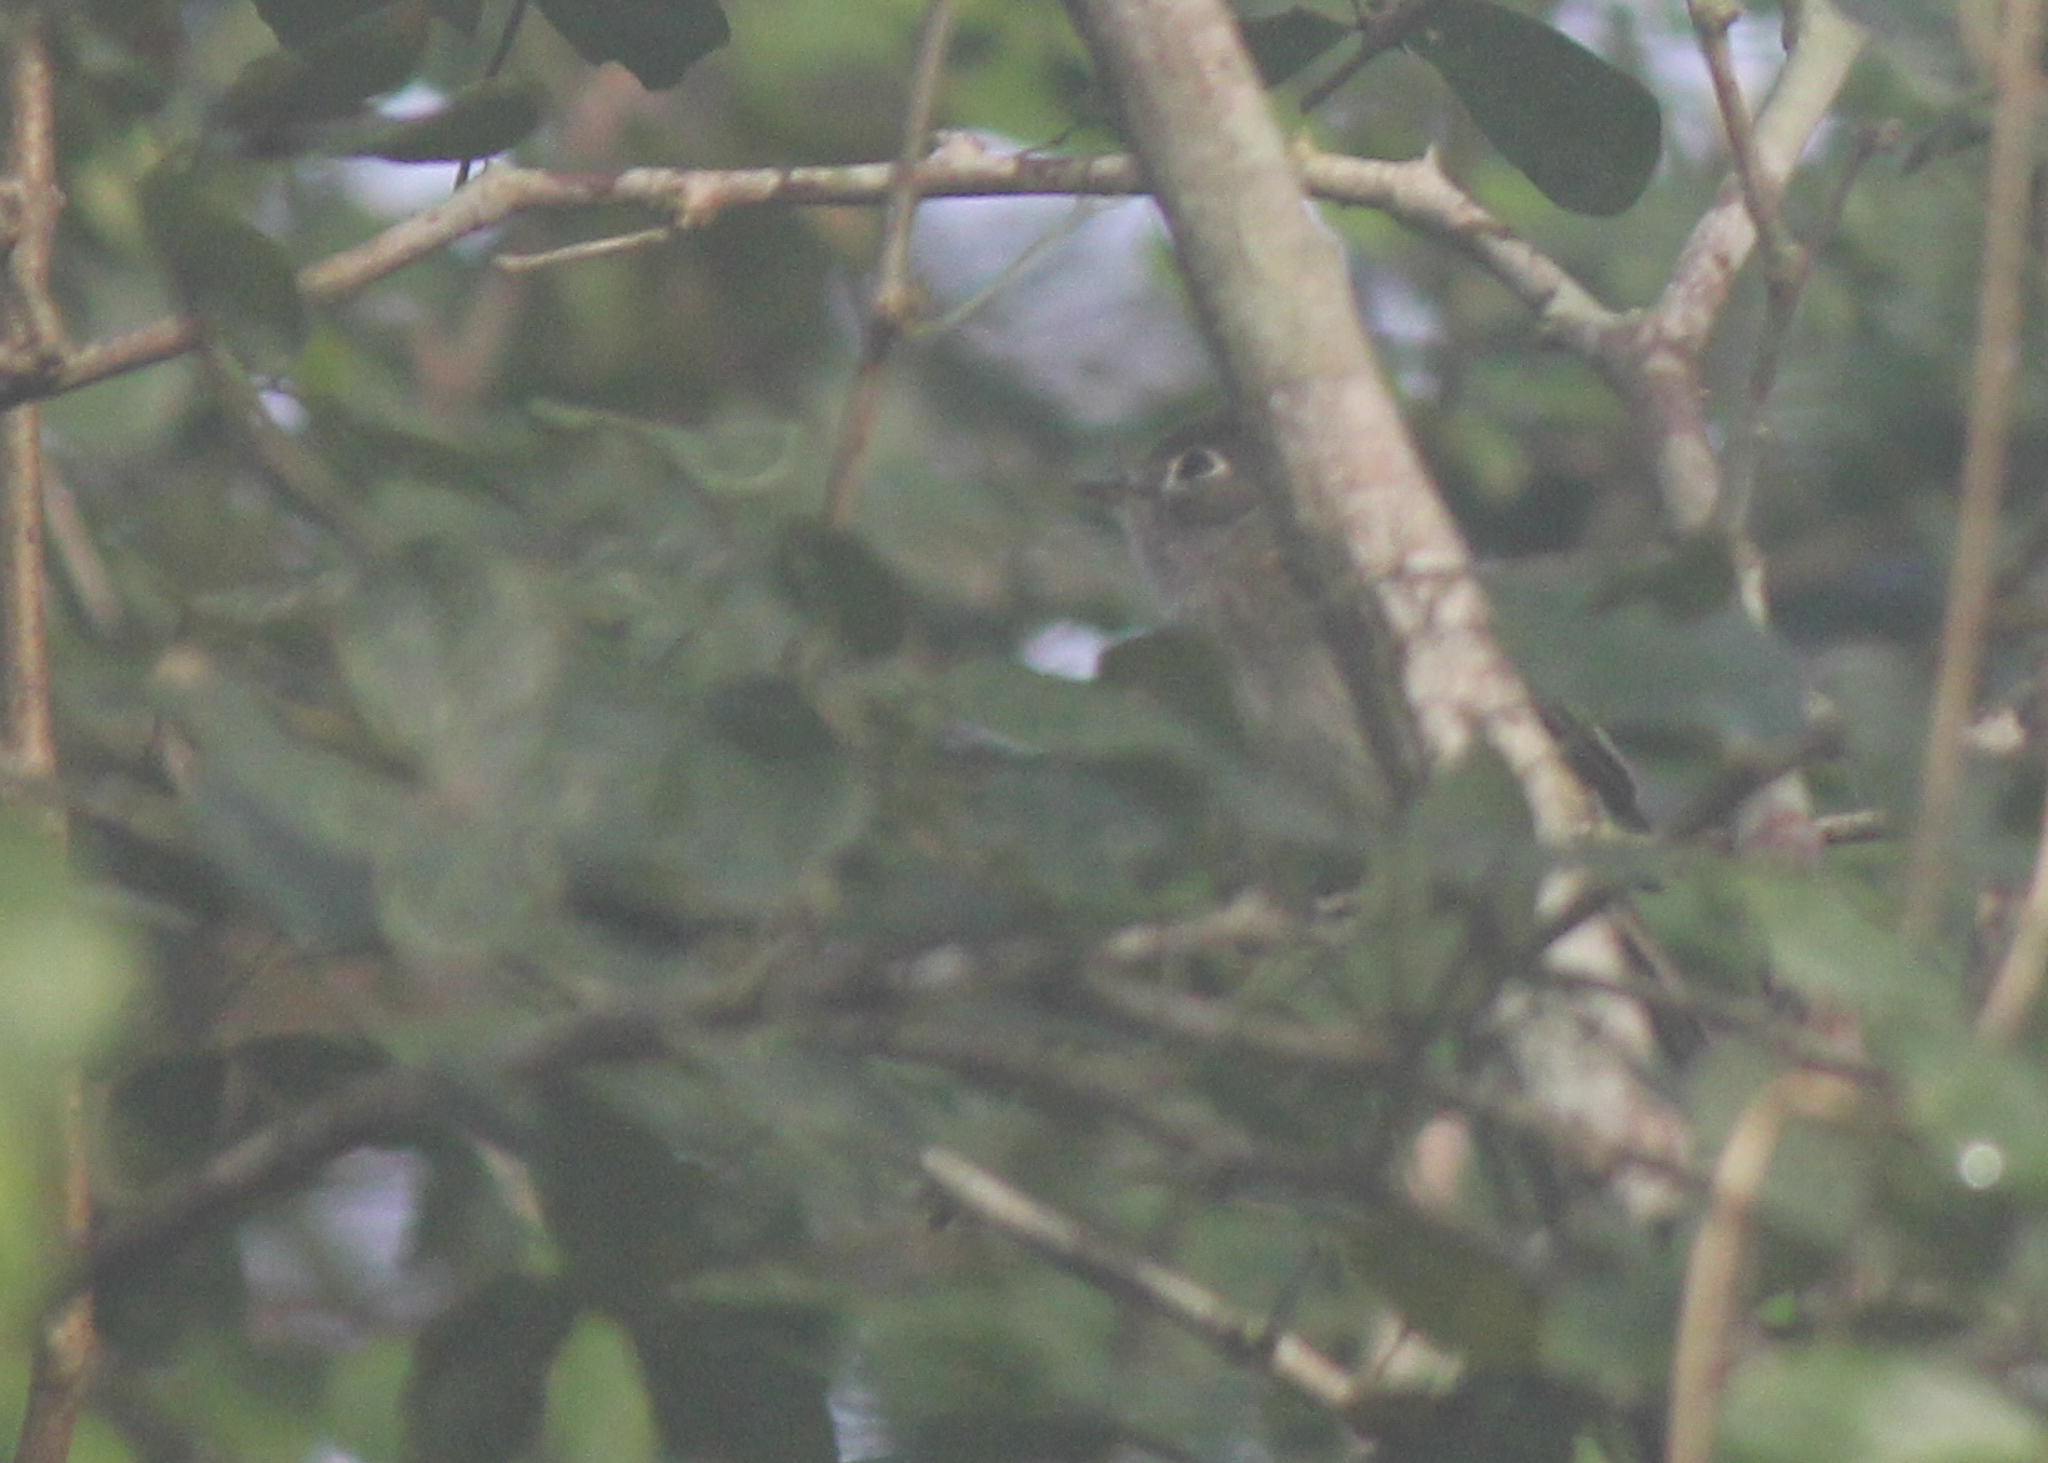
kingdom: Animalia
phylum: Chordata
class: Aves
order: Passeriformes
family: Tyrannidae
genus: Empidonax
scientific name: Empidonax minimus
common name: Least flycatcher
